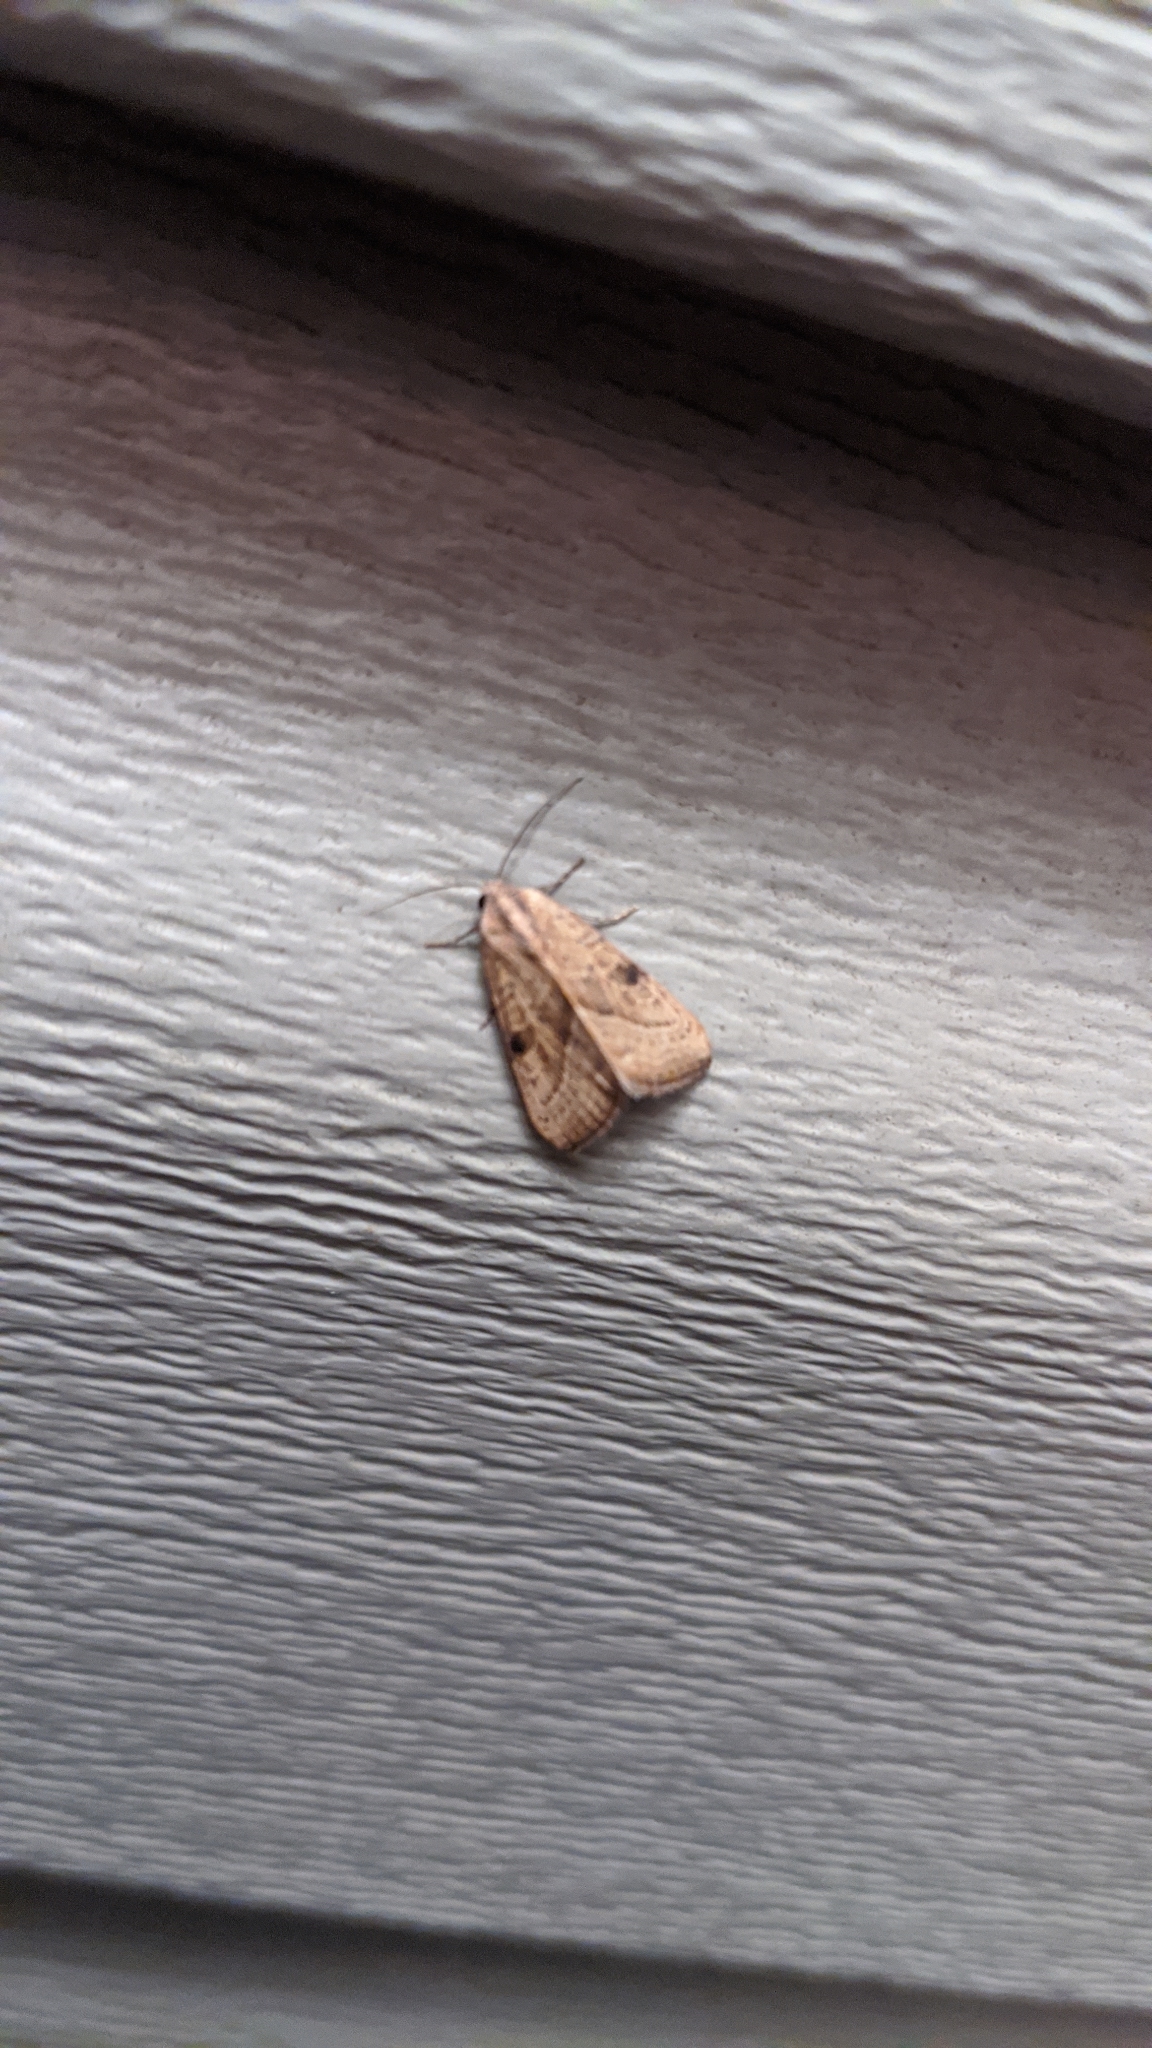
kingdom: Animalia
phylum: Arthropoda
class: Insecta
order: Lepidoptera
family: Noctuidae
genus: Galgula
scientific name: Galgula partita
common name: Wedgeling
